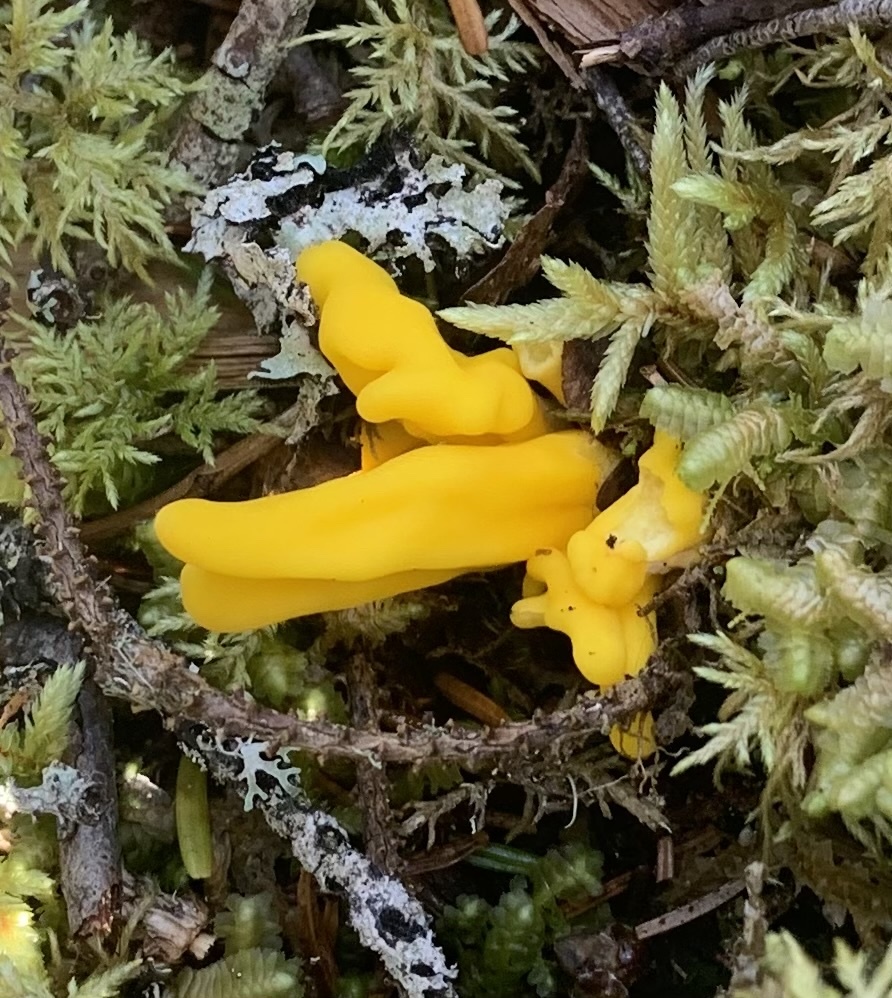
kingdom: Fungi
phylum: Ascomycota
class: Neolectomycetes
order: Neolectales
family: Neolectaceae
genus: Neolecta
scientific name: Neolecta irregularis
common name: Irregular earth tongue
